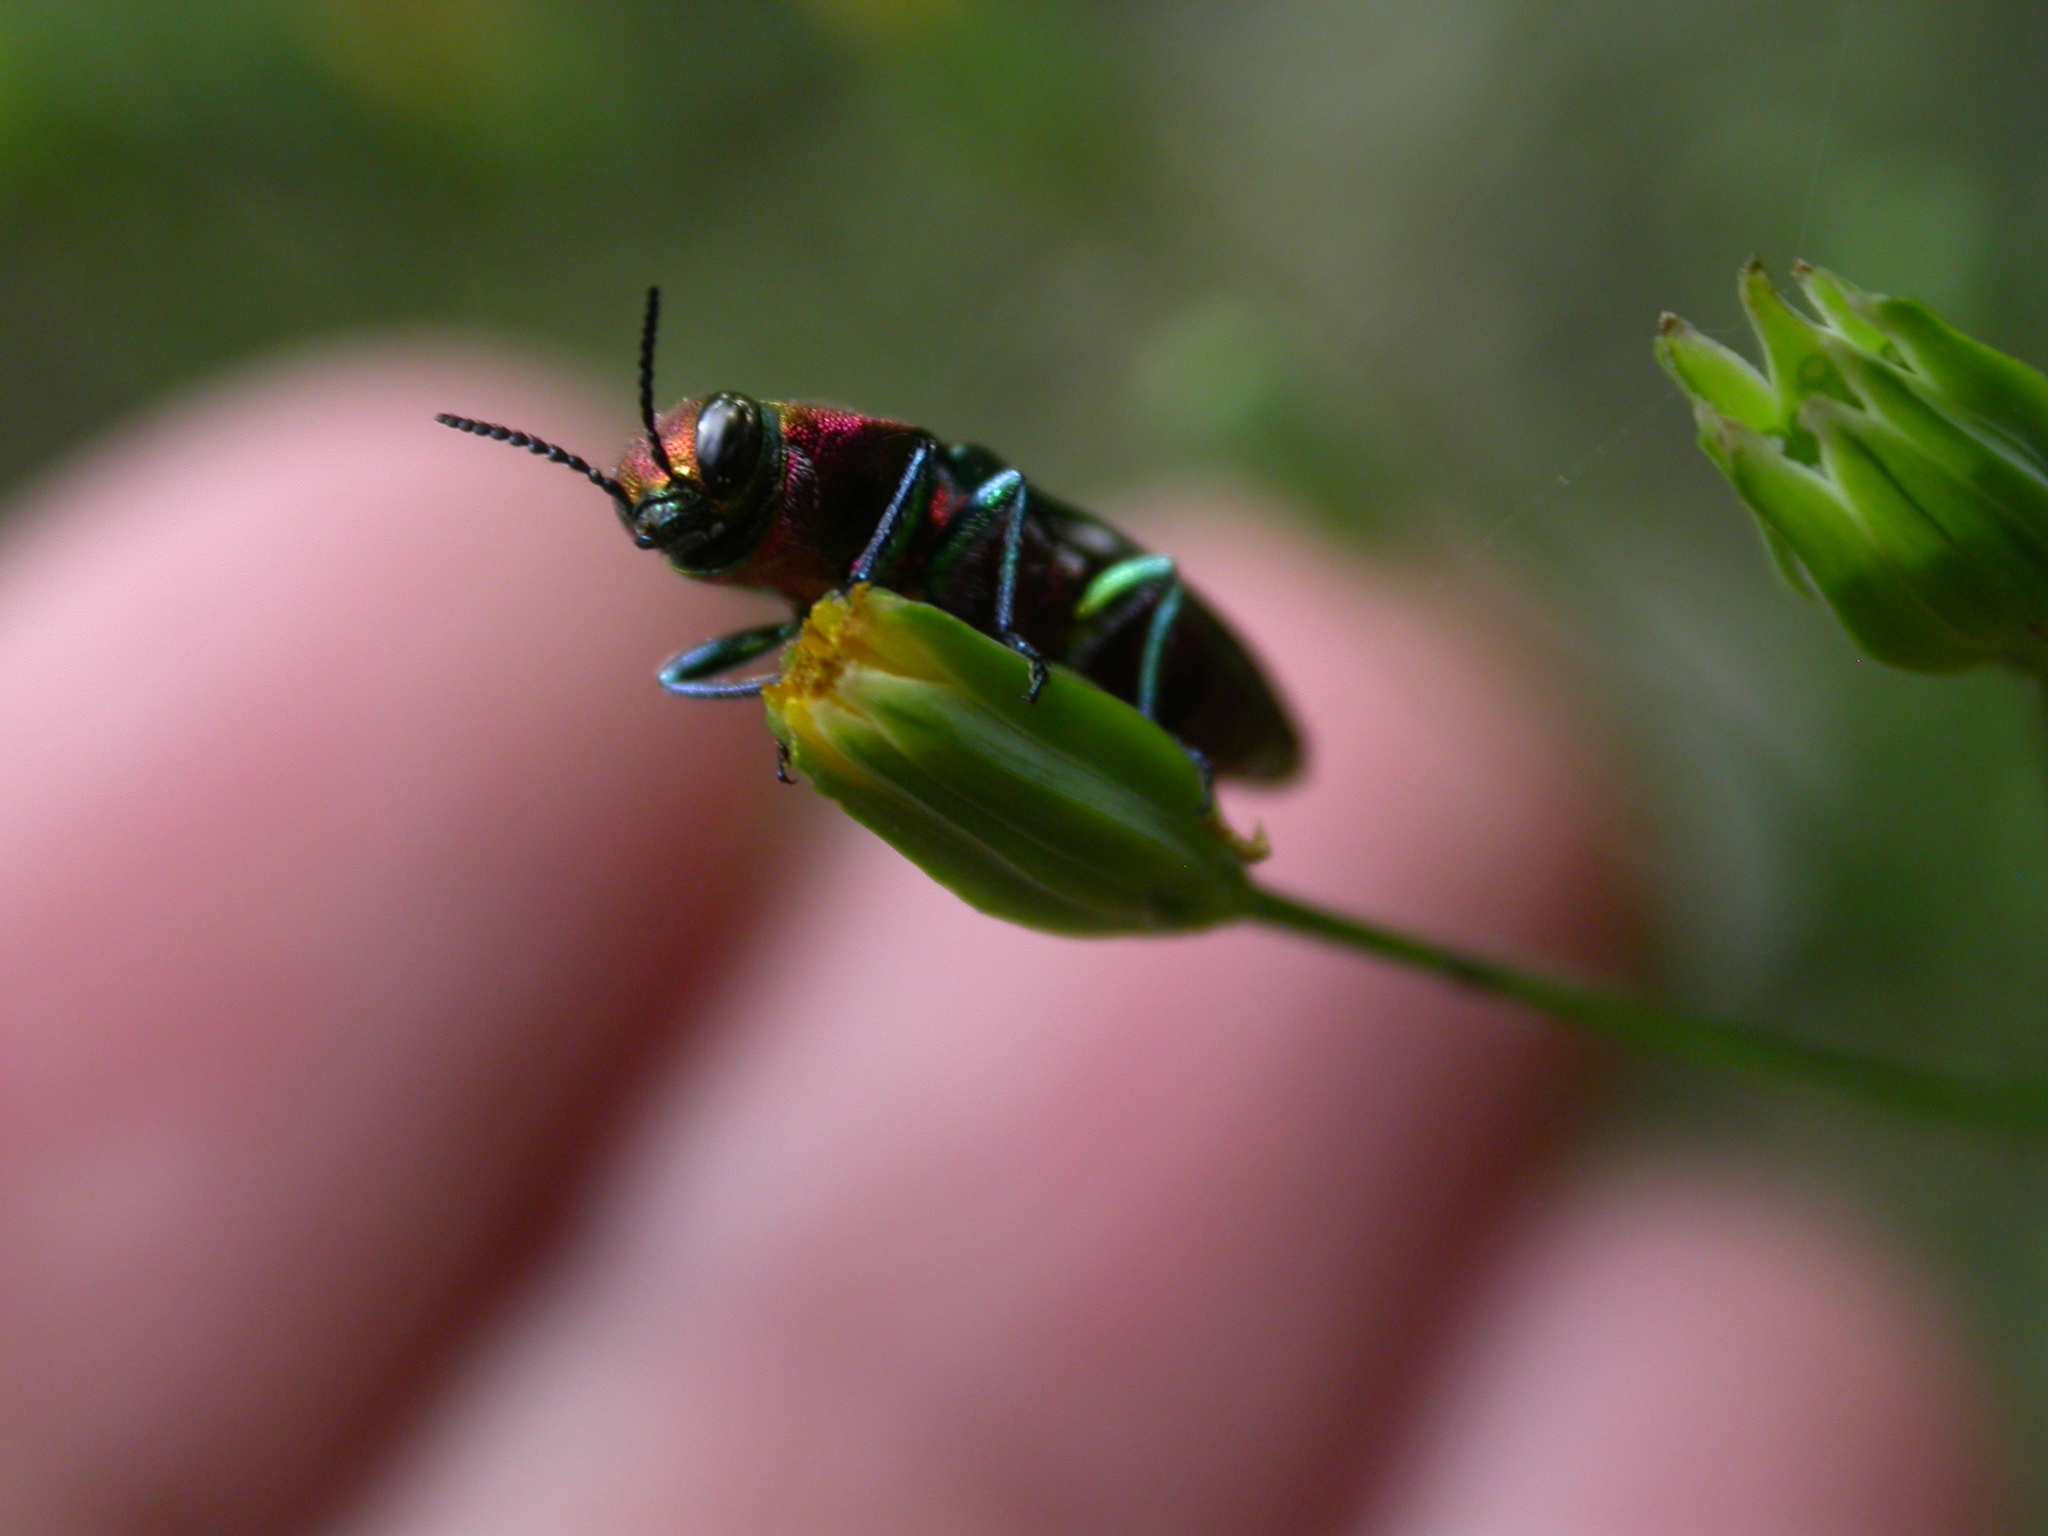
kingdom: Animalia
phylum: Arthropoda
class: Insecta
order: Coleoptera
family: Buprestidae
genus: Anthaxia
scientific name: Anthaxia hungarica
